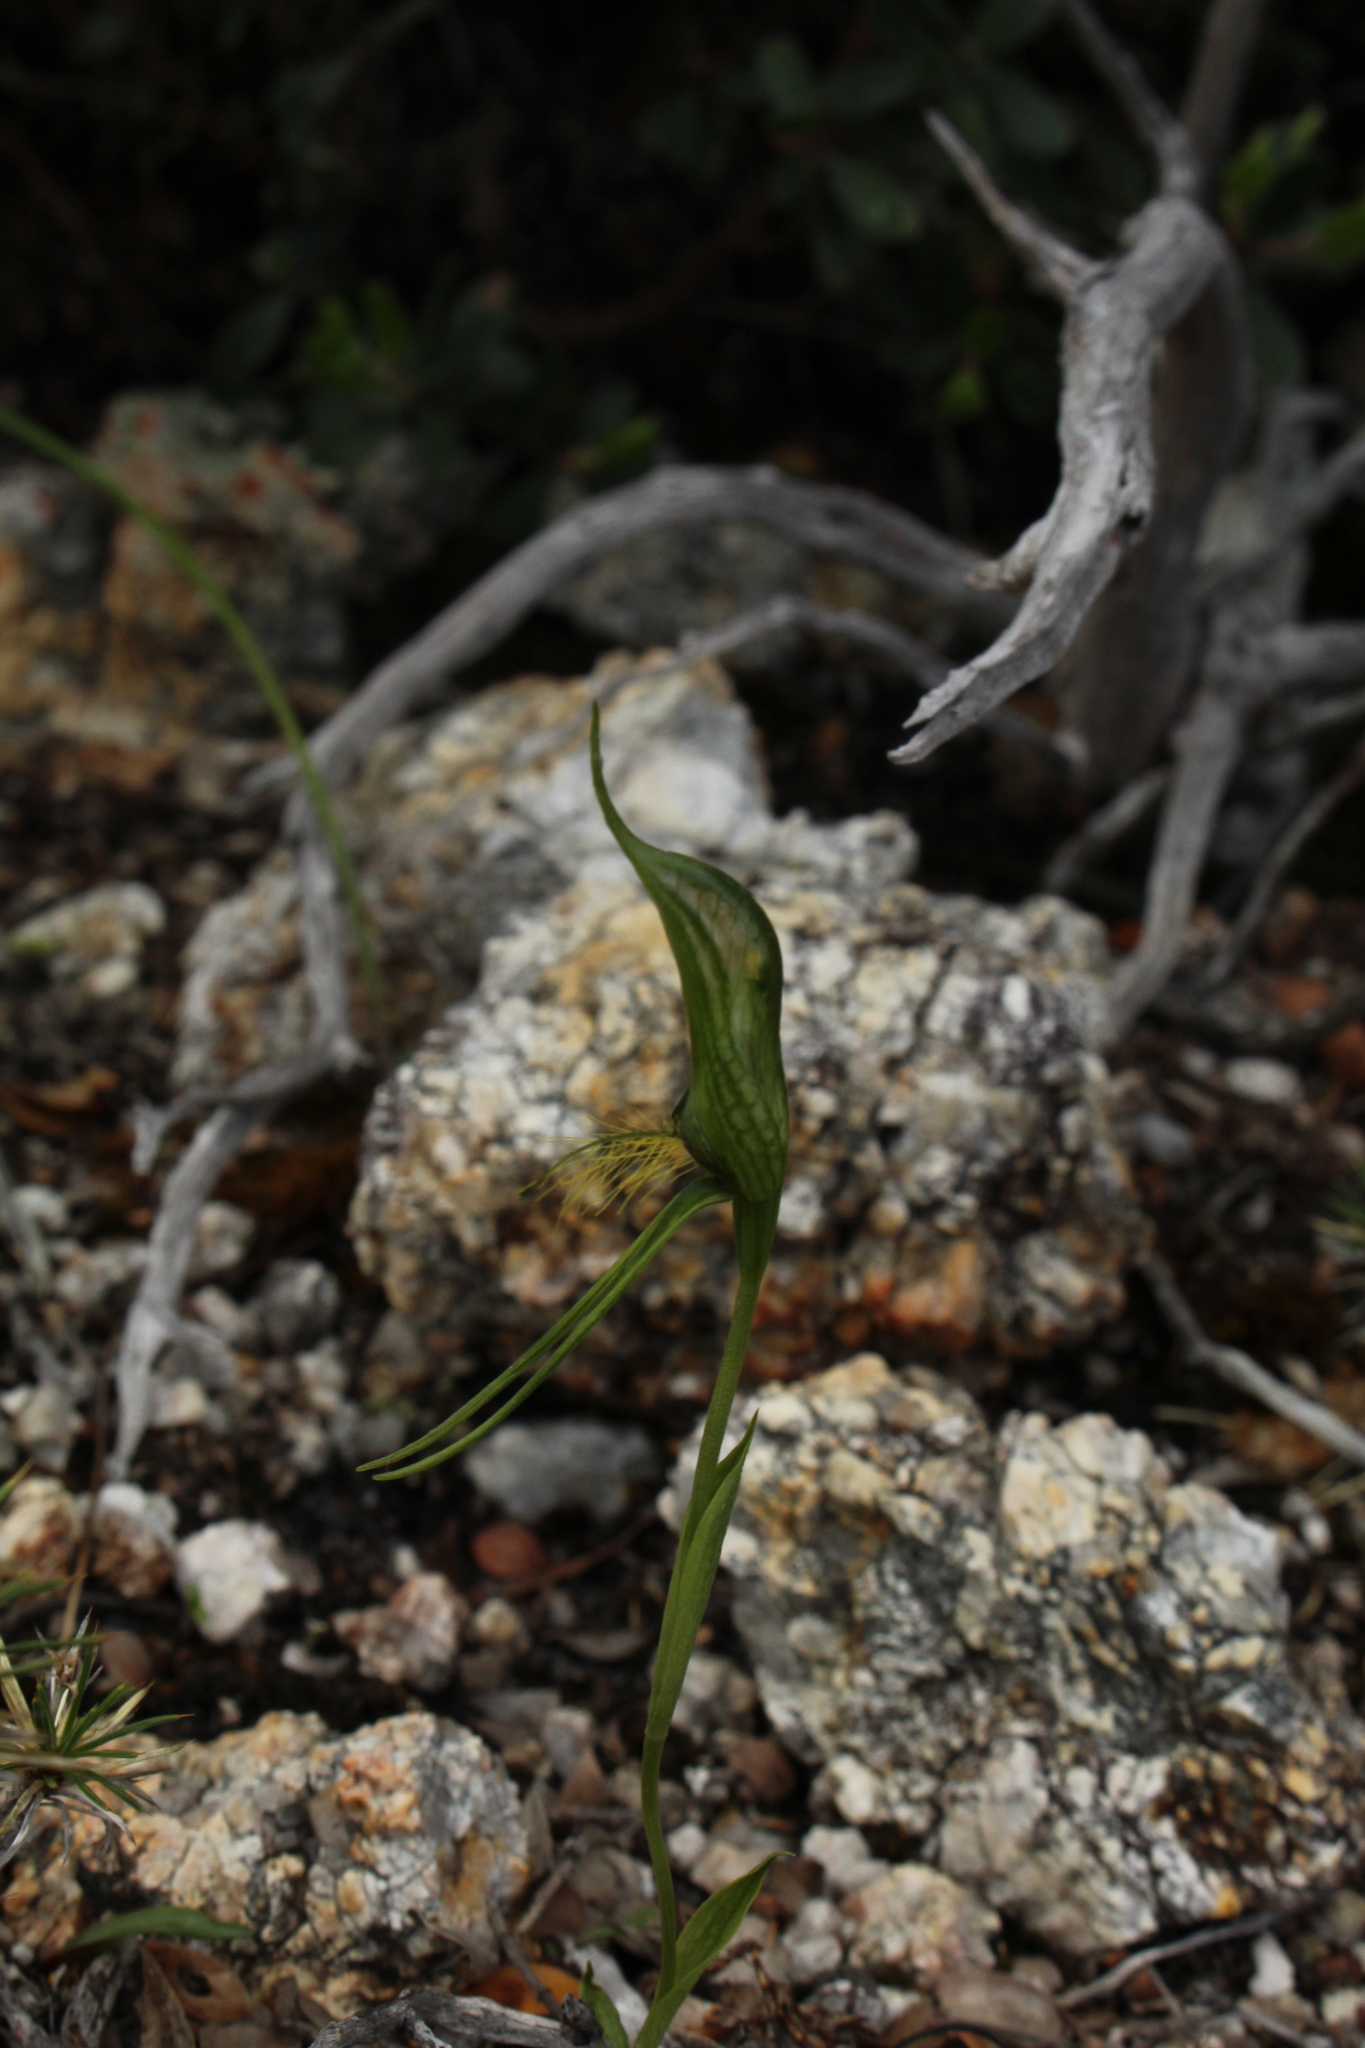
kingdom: Plantae
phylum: Tracheophyta
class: Liliopsida
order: Asparagales
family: Orchidaceae
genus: Pterostylis
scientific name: Pterostylis saxosa
